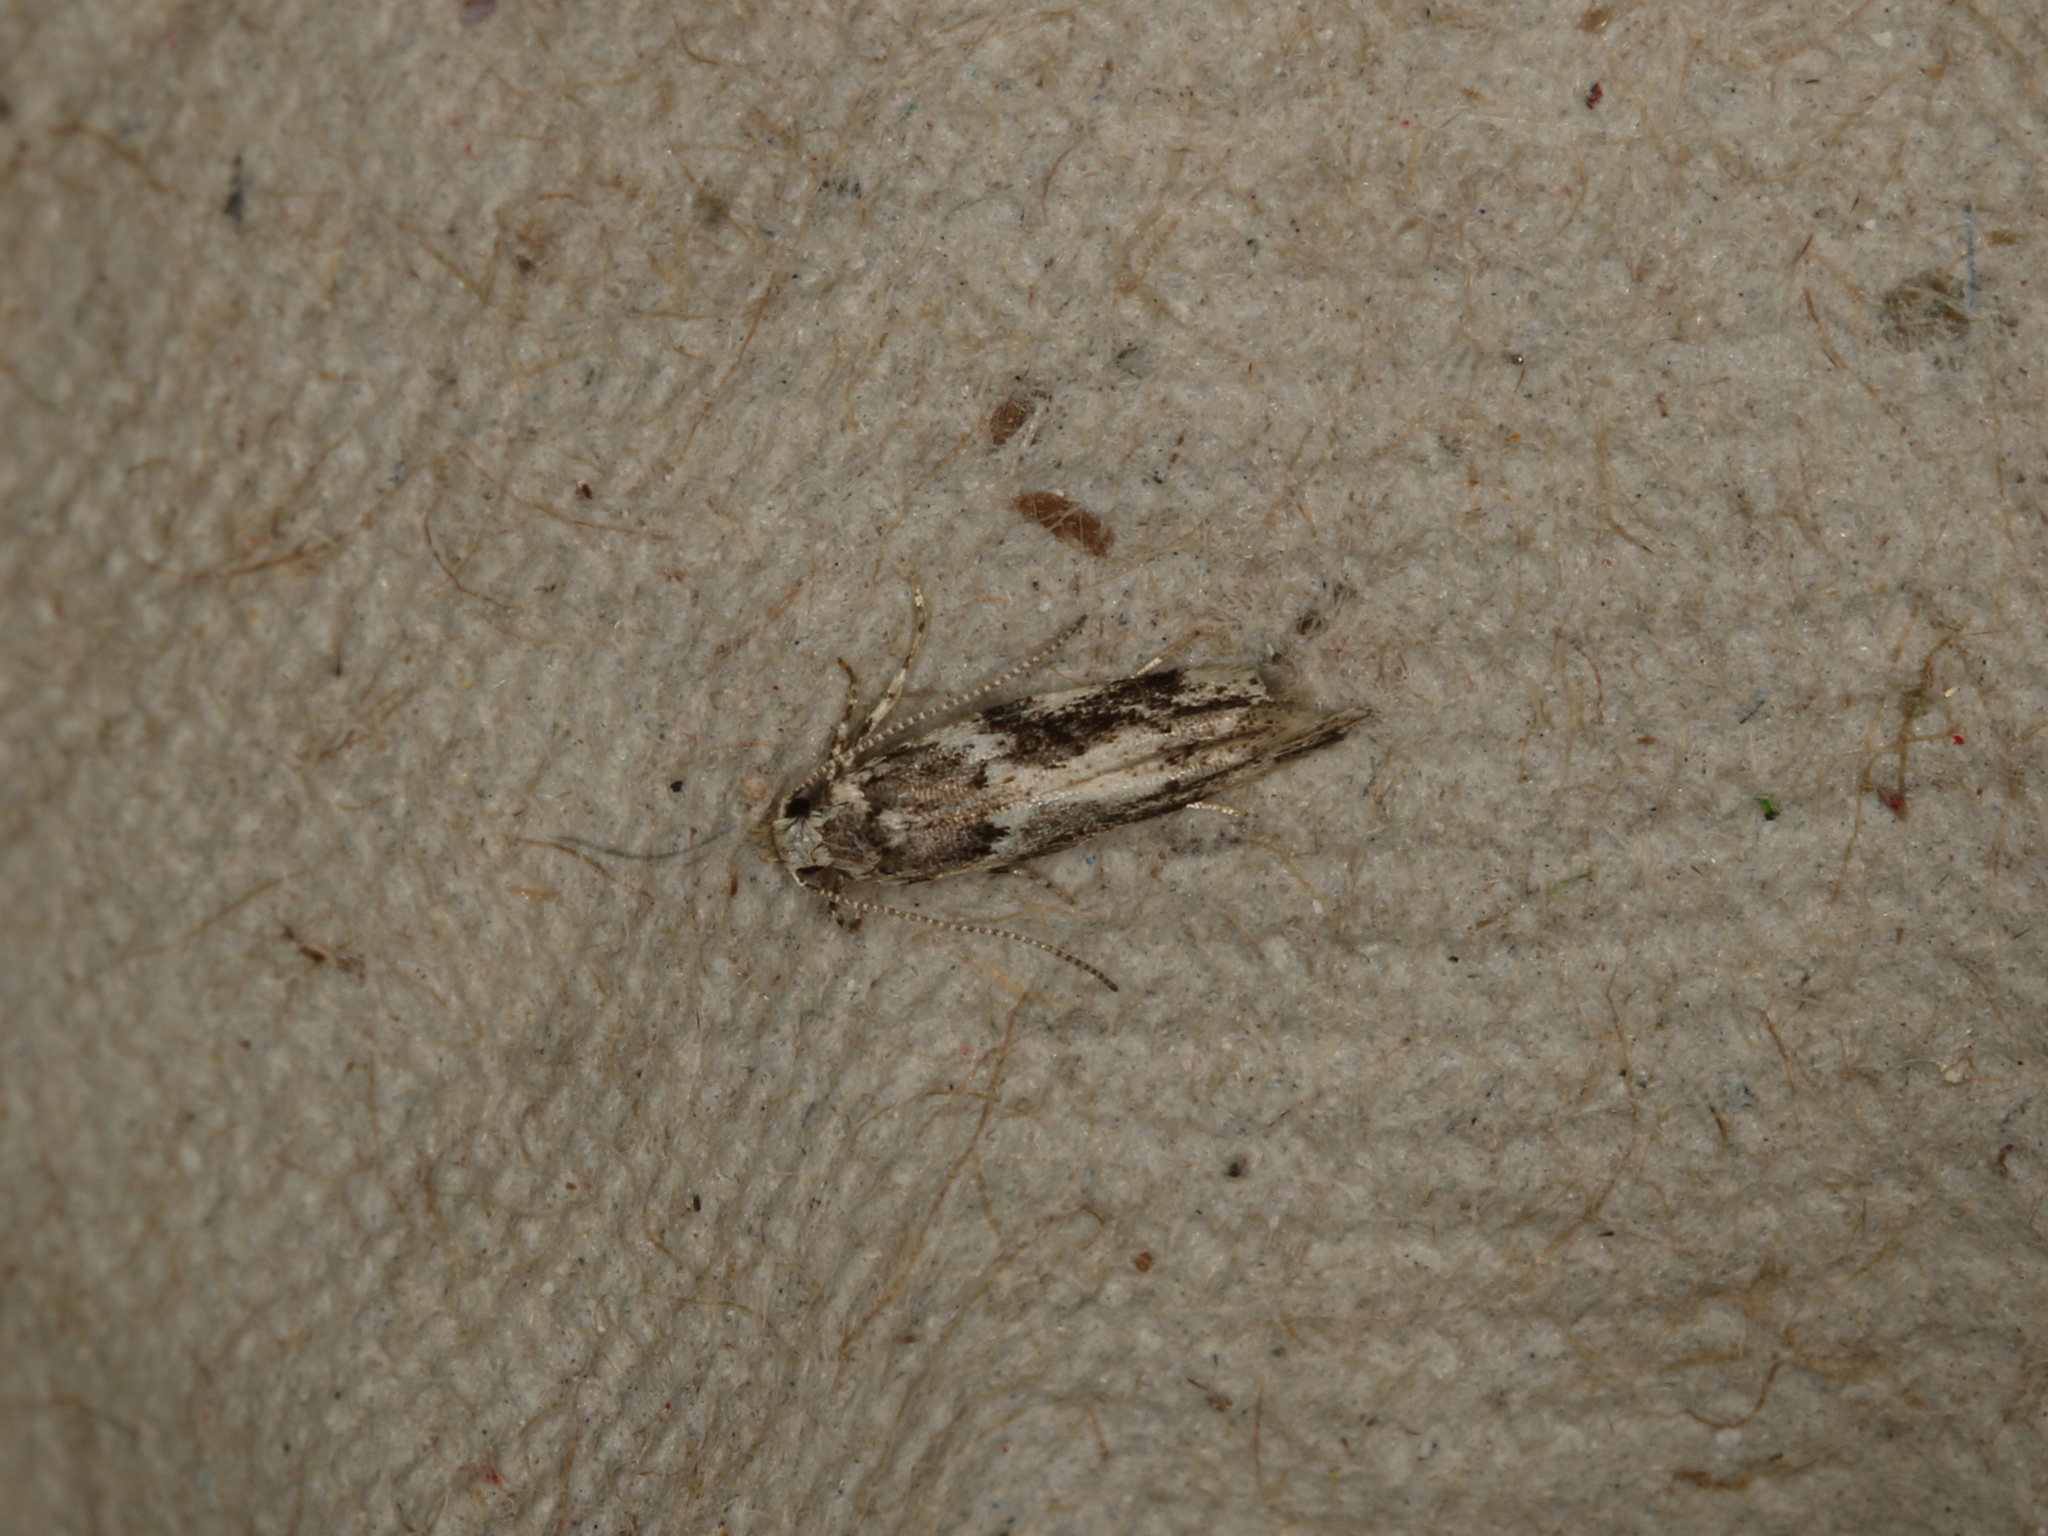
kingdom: Animalia
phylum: Arthropoda
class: Insecta
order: Lepidoptera
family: Gelechiidae
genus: Parachronistis
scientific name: Parachronistis albiceps
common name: Wood groundling
